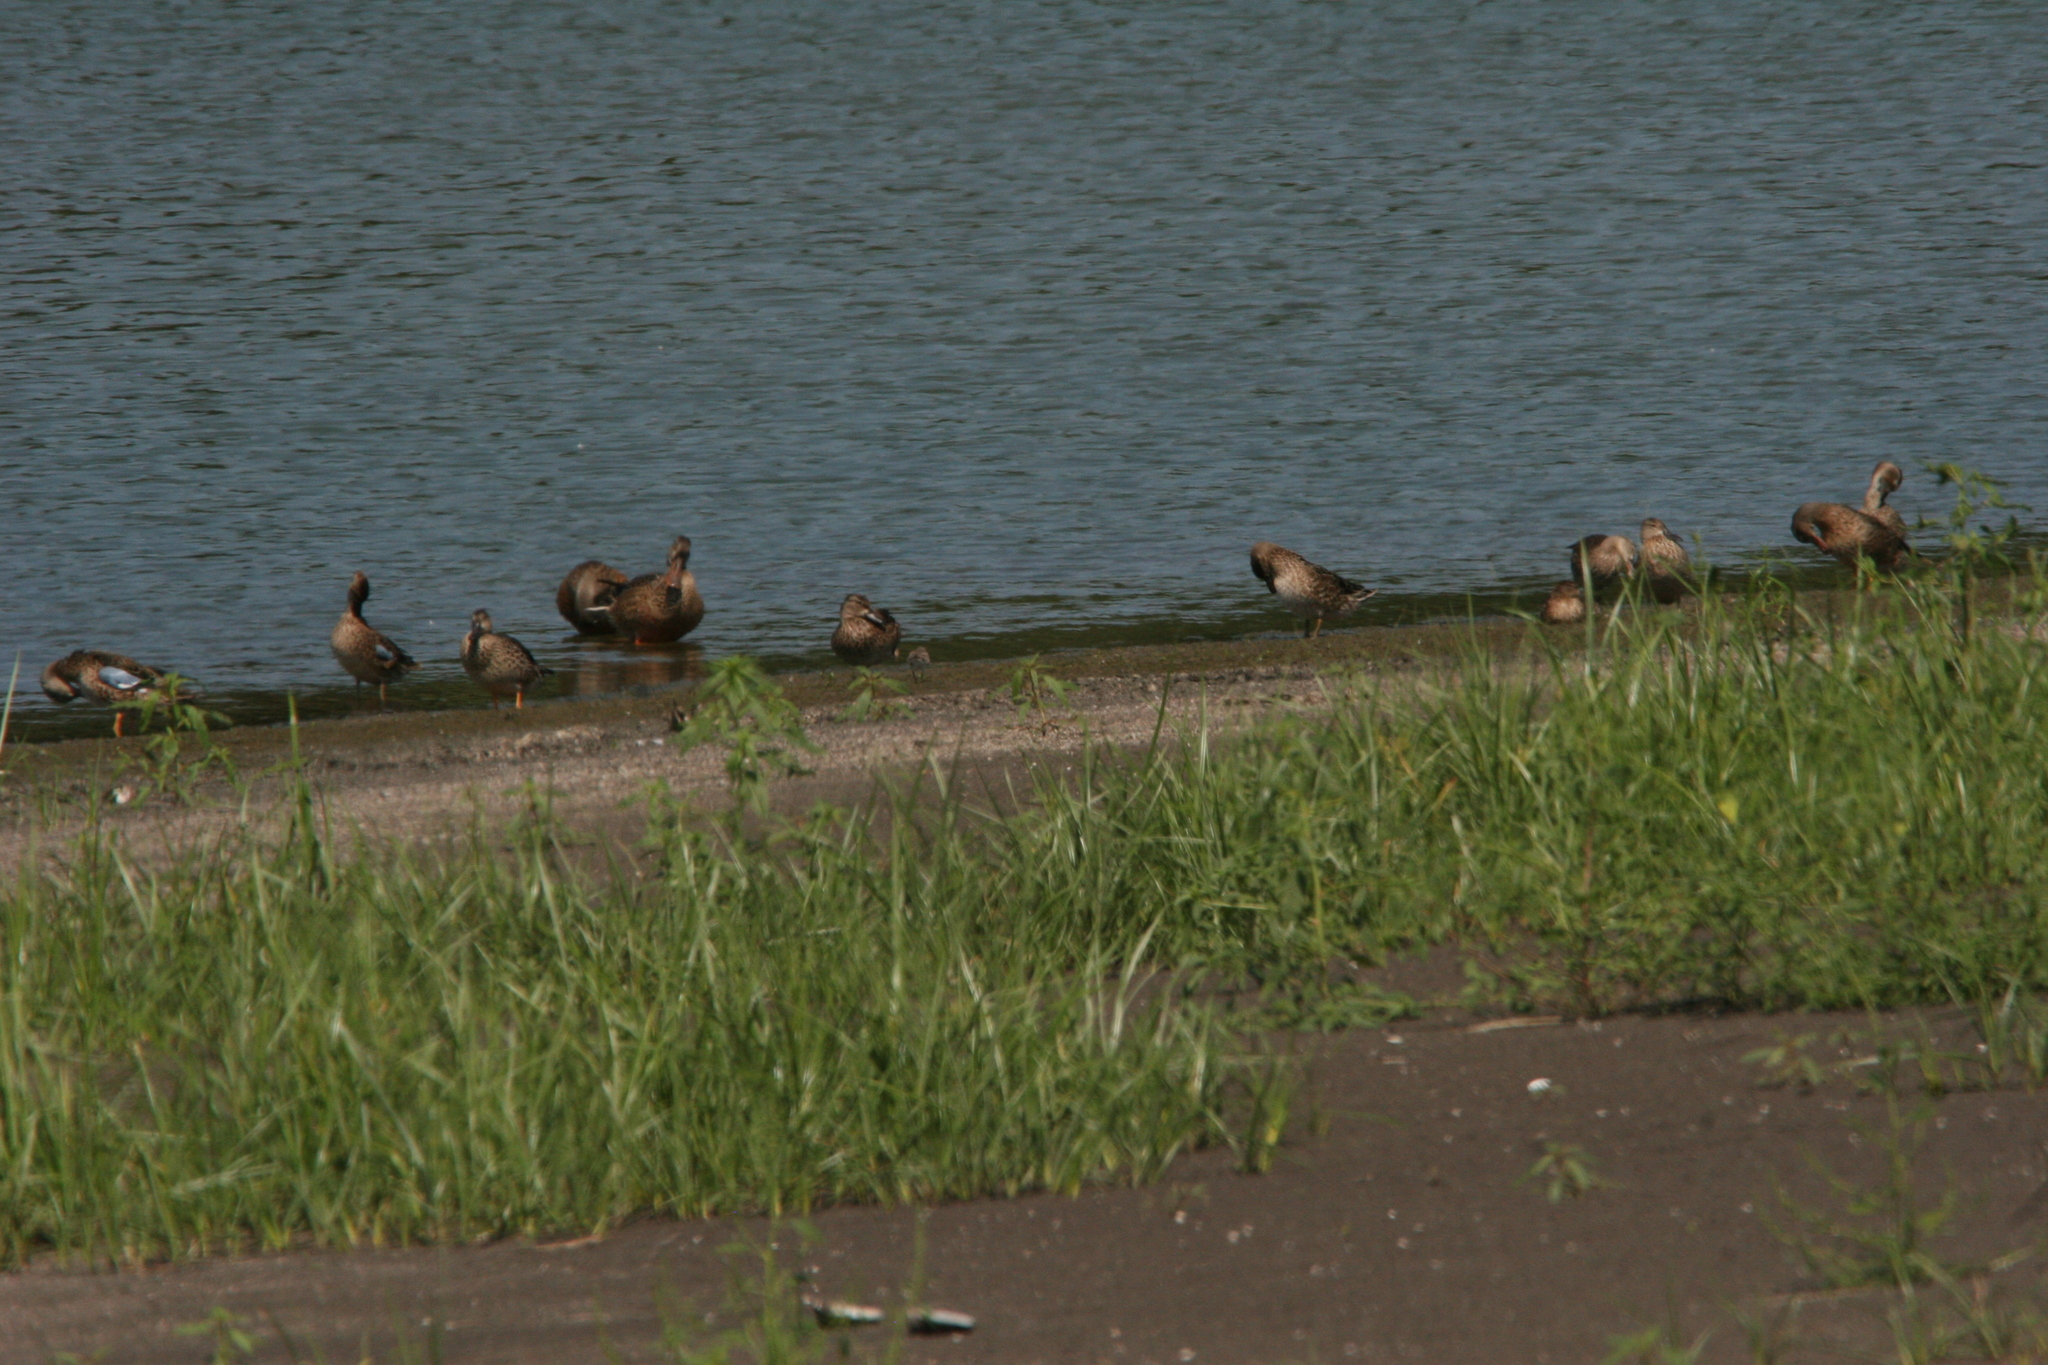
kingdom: Animalia
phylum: Chordata
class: Aves
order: Anseriformes
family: Anatidae
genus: Spatula
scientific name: Spatula discors
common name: Blue-winged teal
